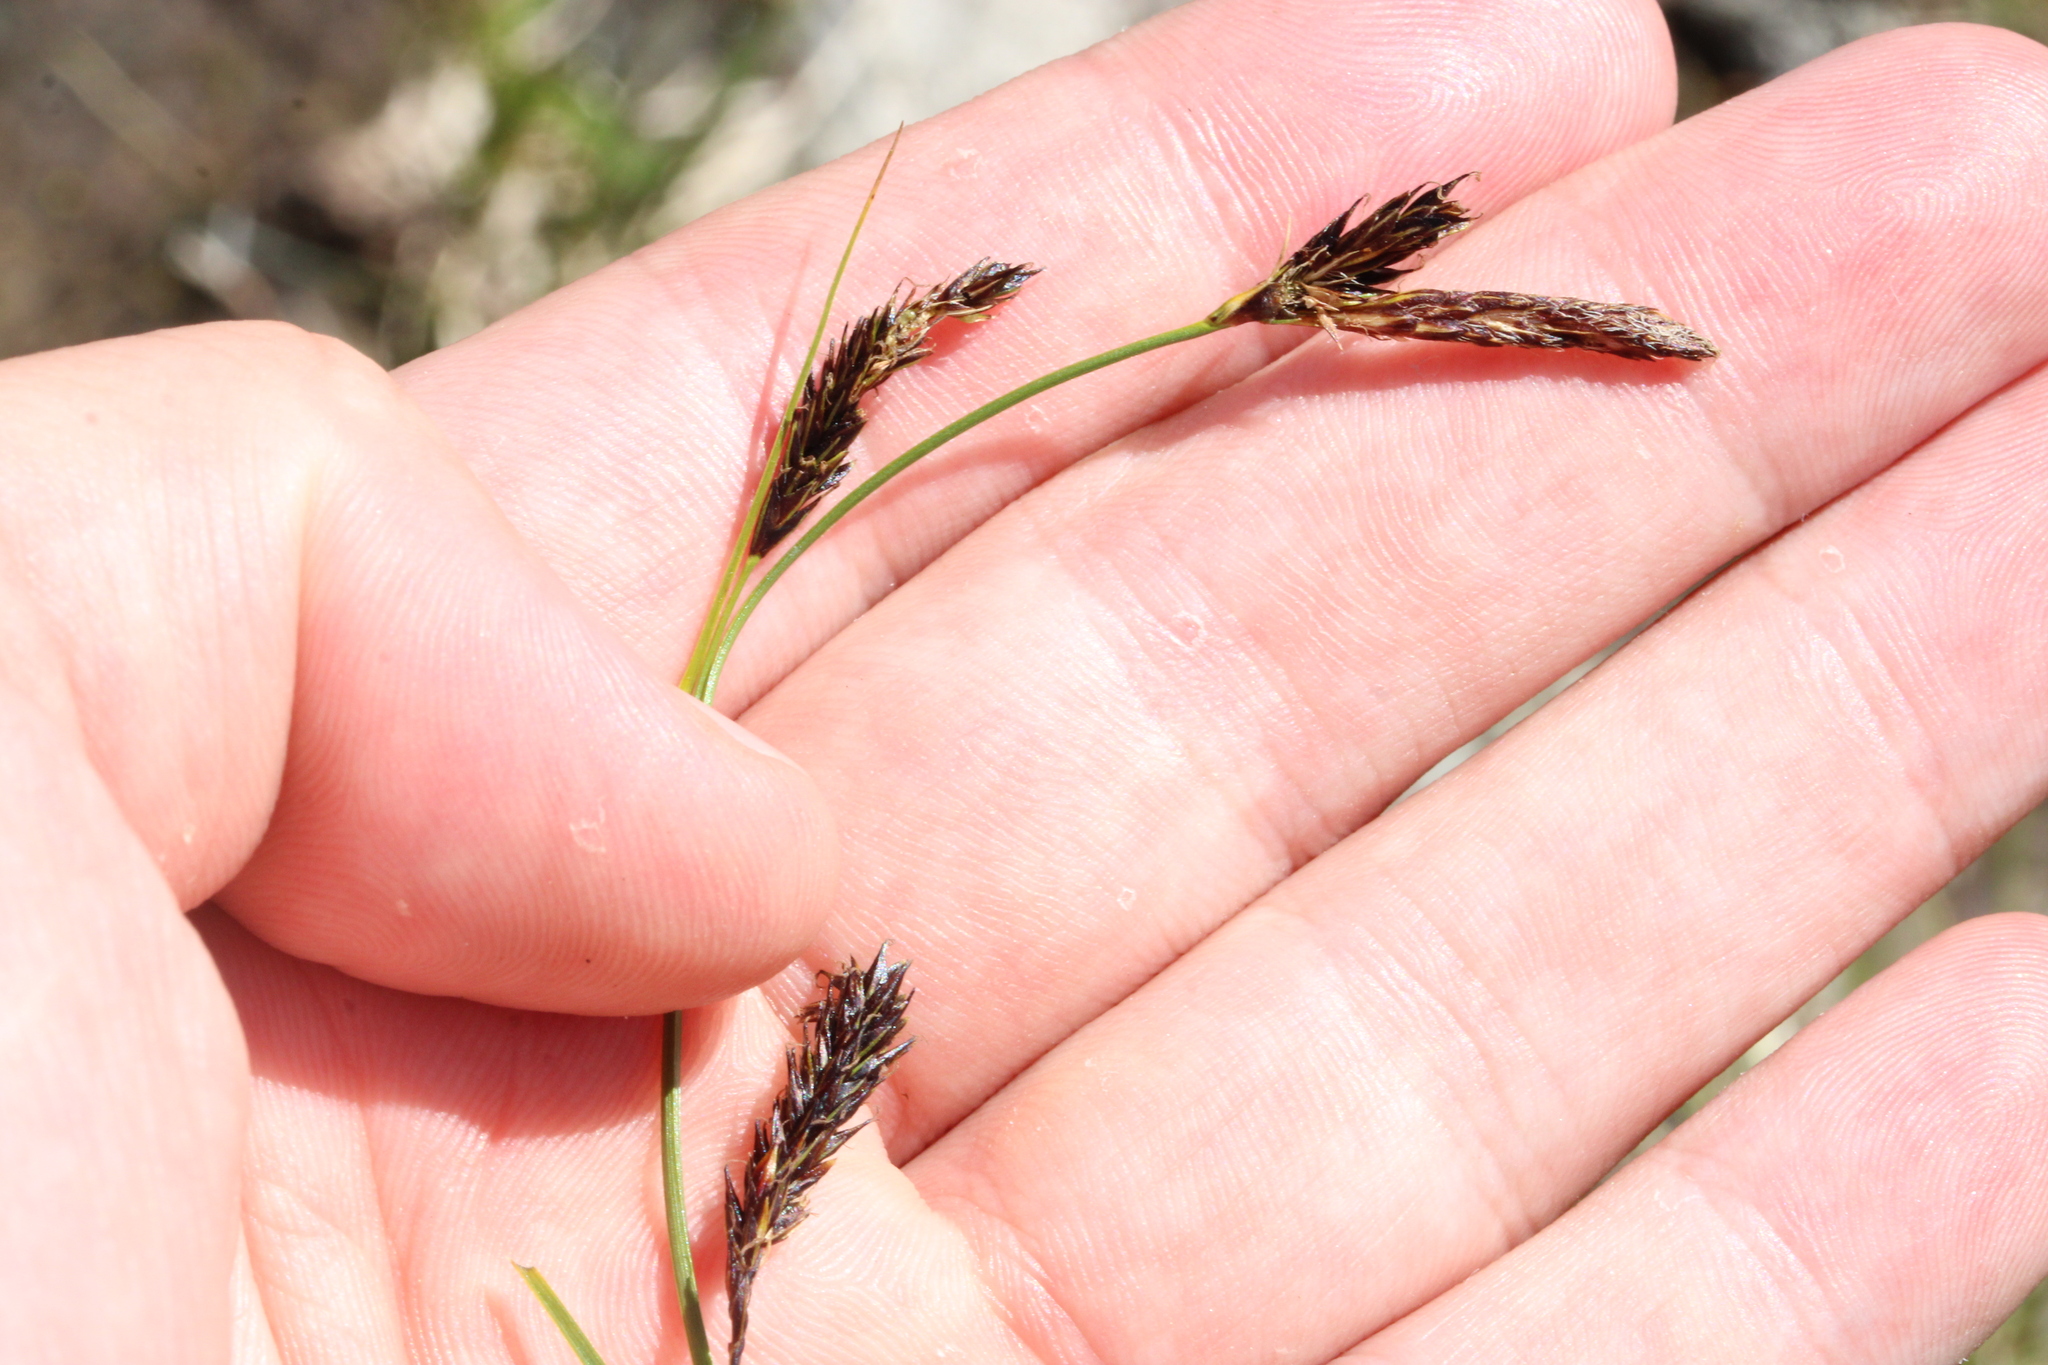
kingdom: Plantae
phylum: Tracheophyta
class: Liliopsida
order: Poales
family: Cyperaceae
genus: Carex
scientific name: Carex frigida
